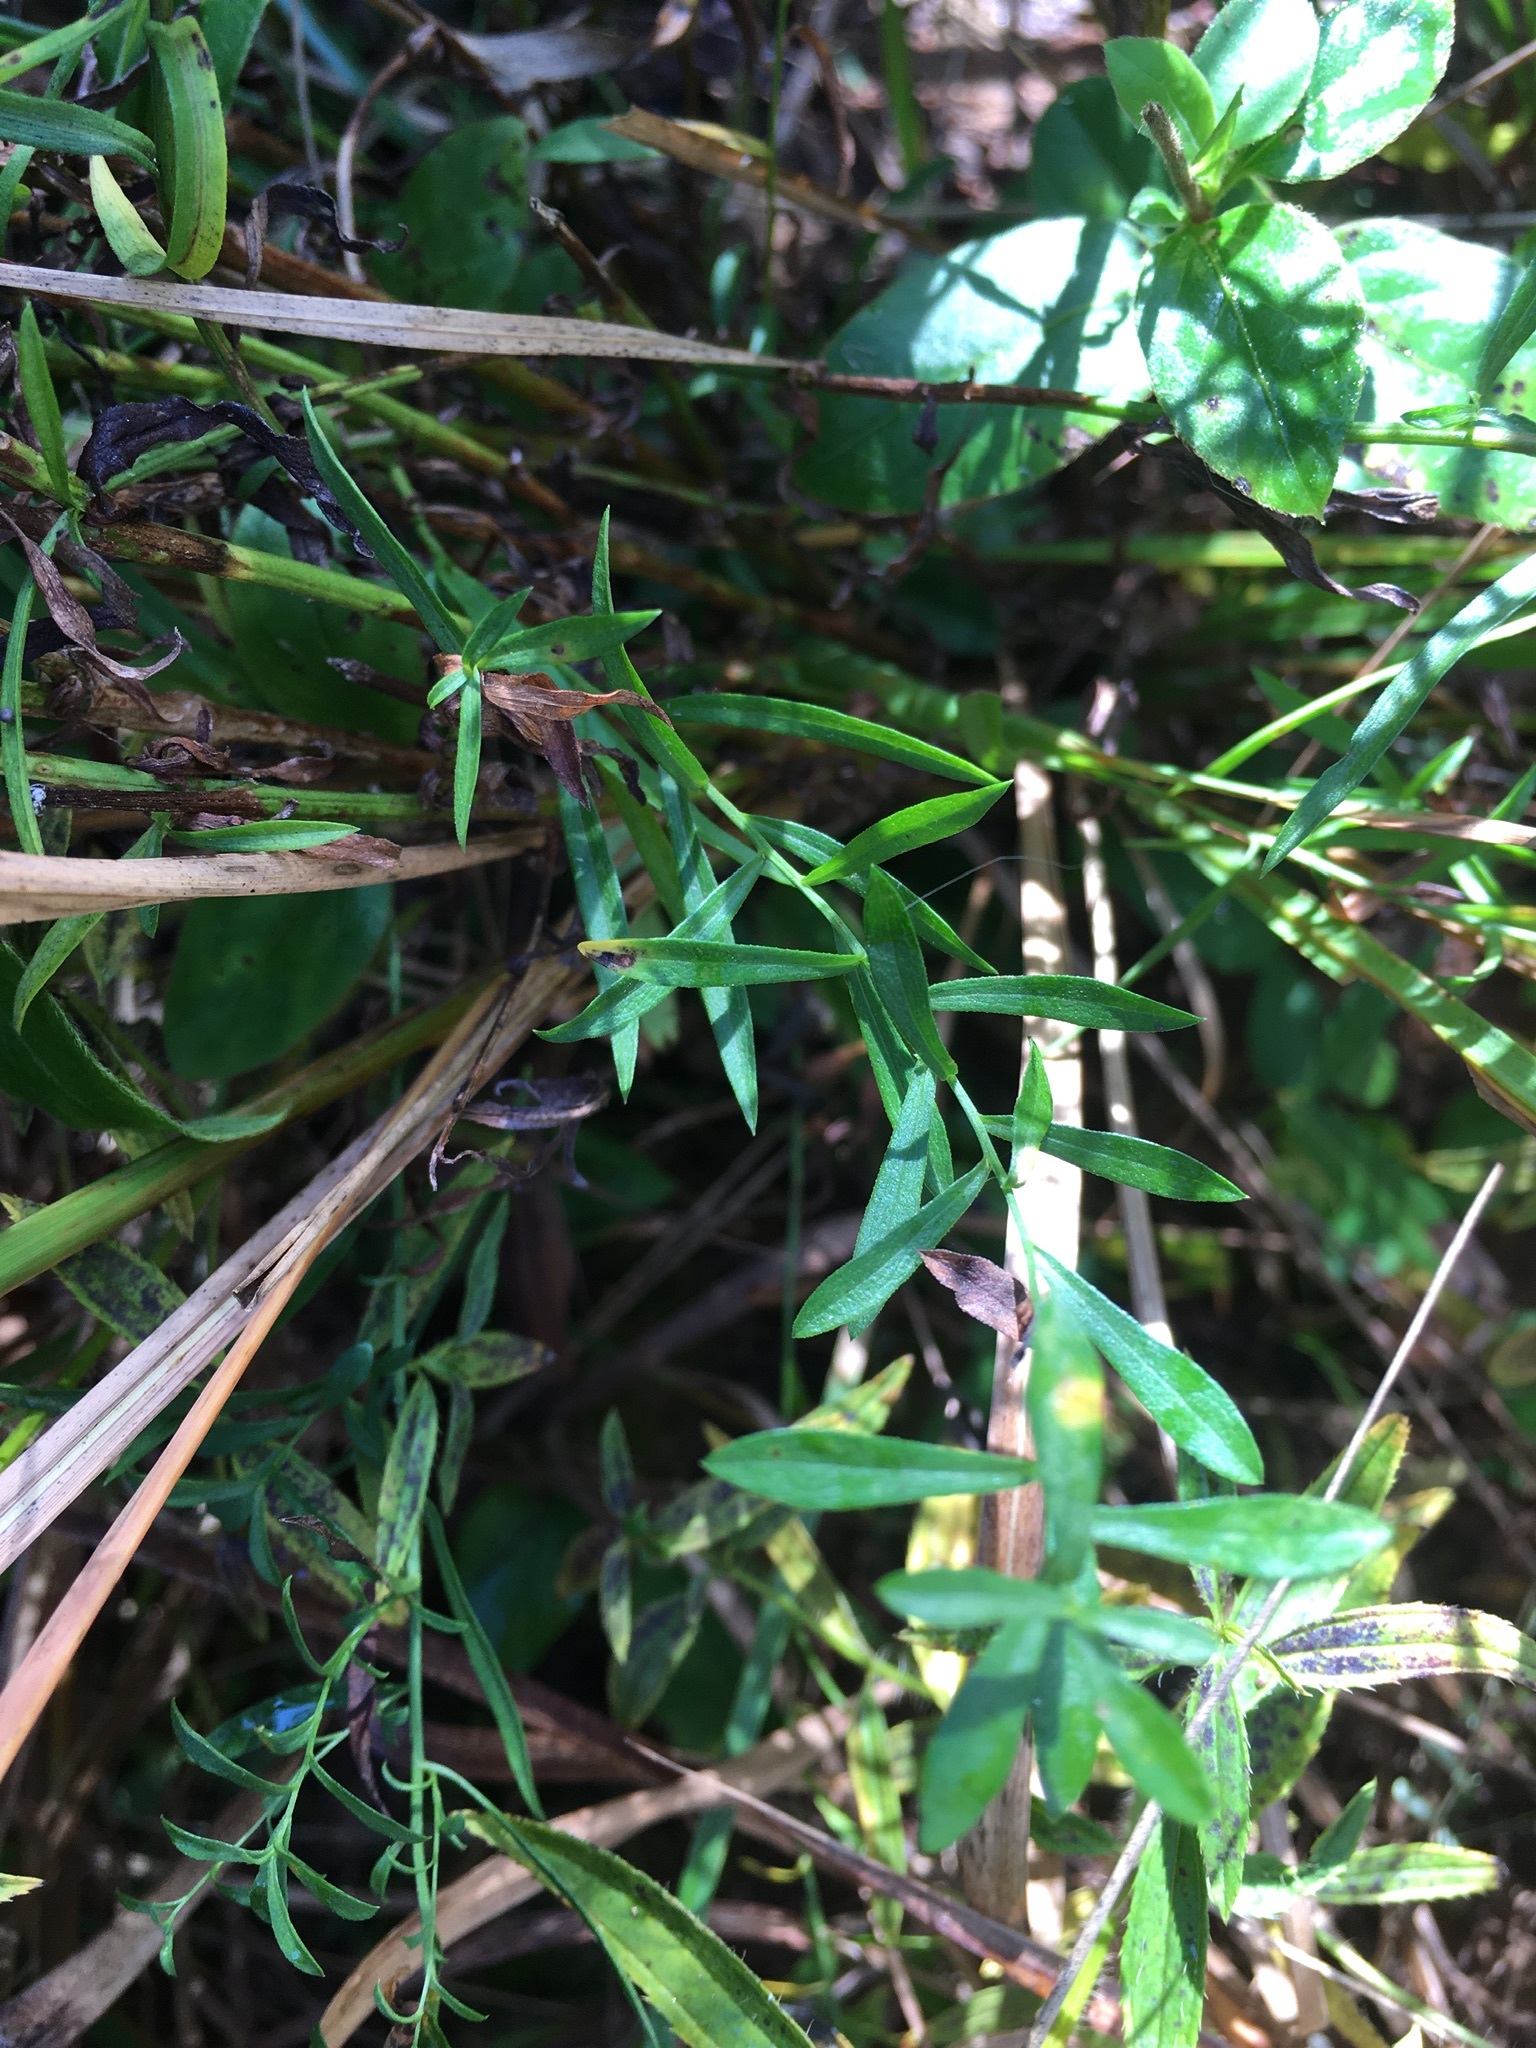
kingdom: Plantae
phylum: Tracheophyta
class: Magnoliopsida
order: Asterales
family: Asteraceae
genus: Symphyotrichum
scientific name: Symphyotrichum dumosum
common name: Bushy aster
